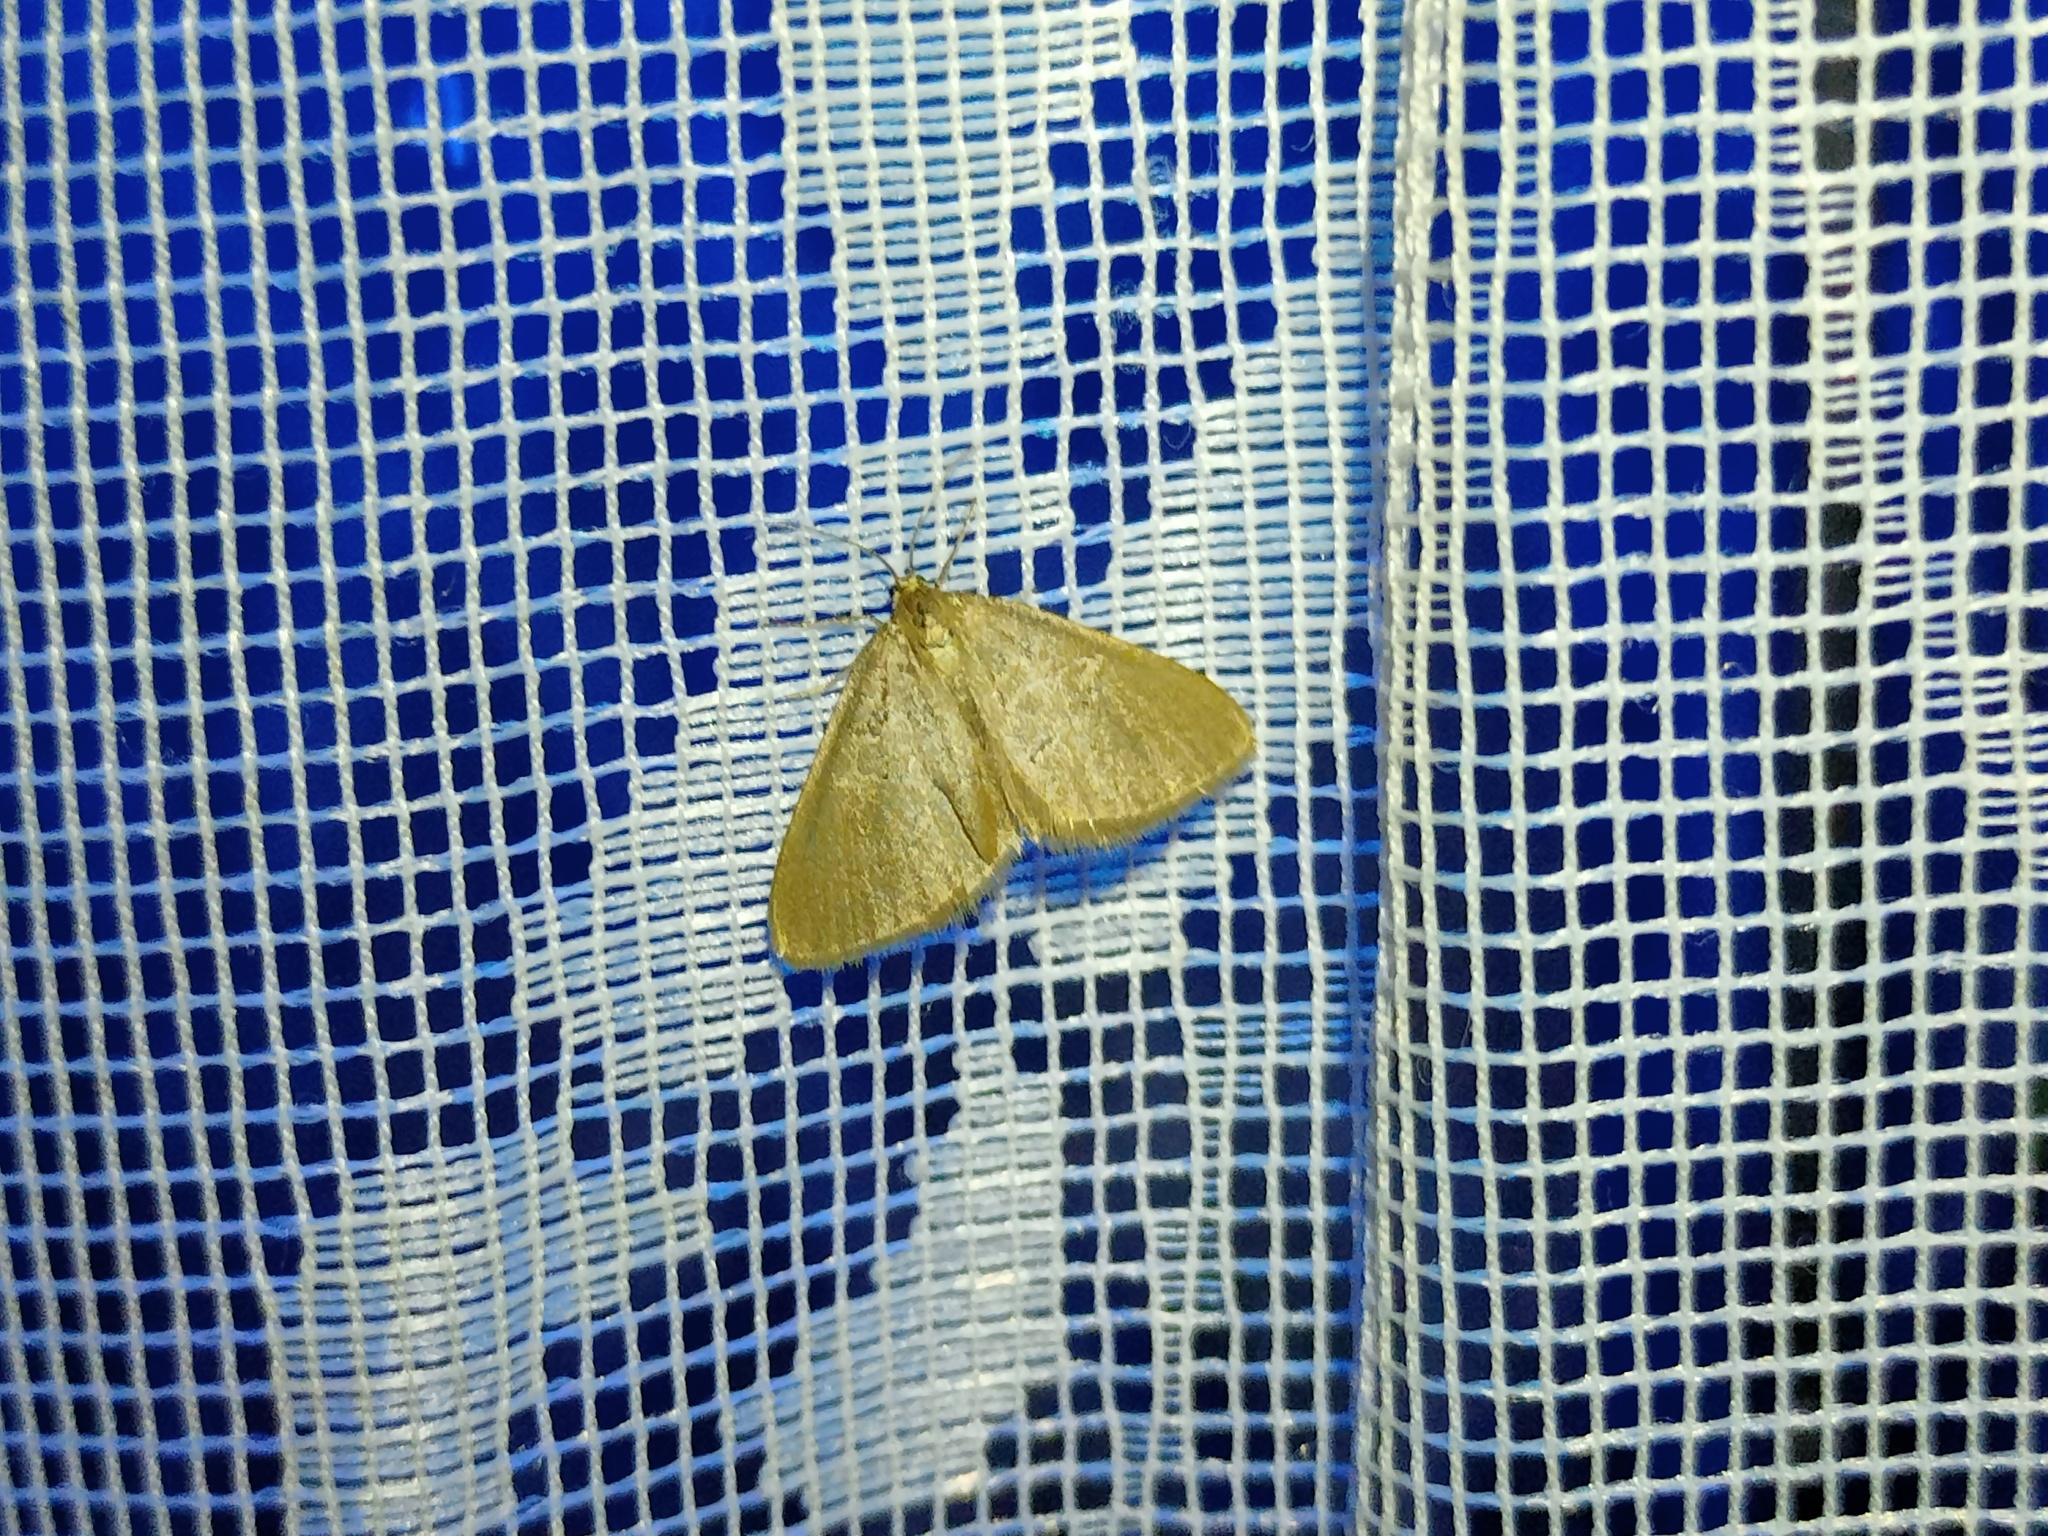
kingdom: Animalia
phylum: Arthropoda
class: Insecta
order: Lepidoptera
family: Geometridae
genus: Minoa
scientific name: Minoa murinata
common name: Drab looper
